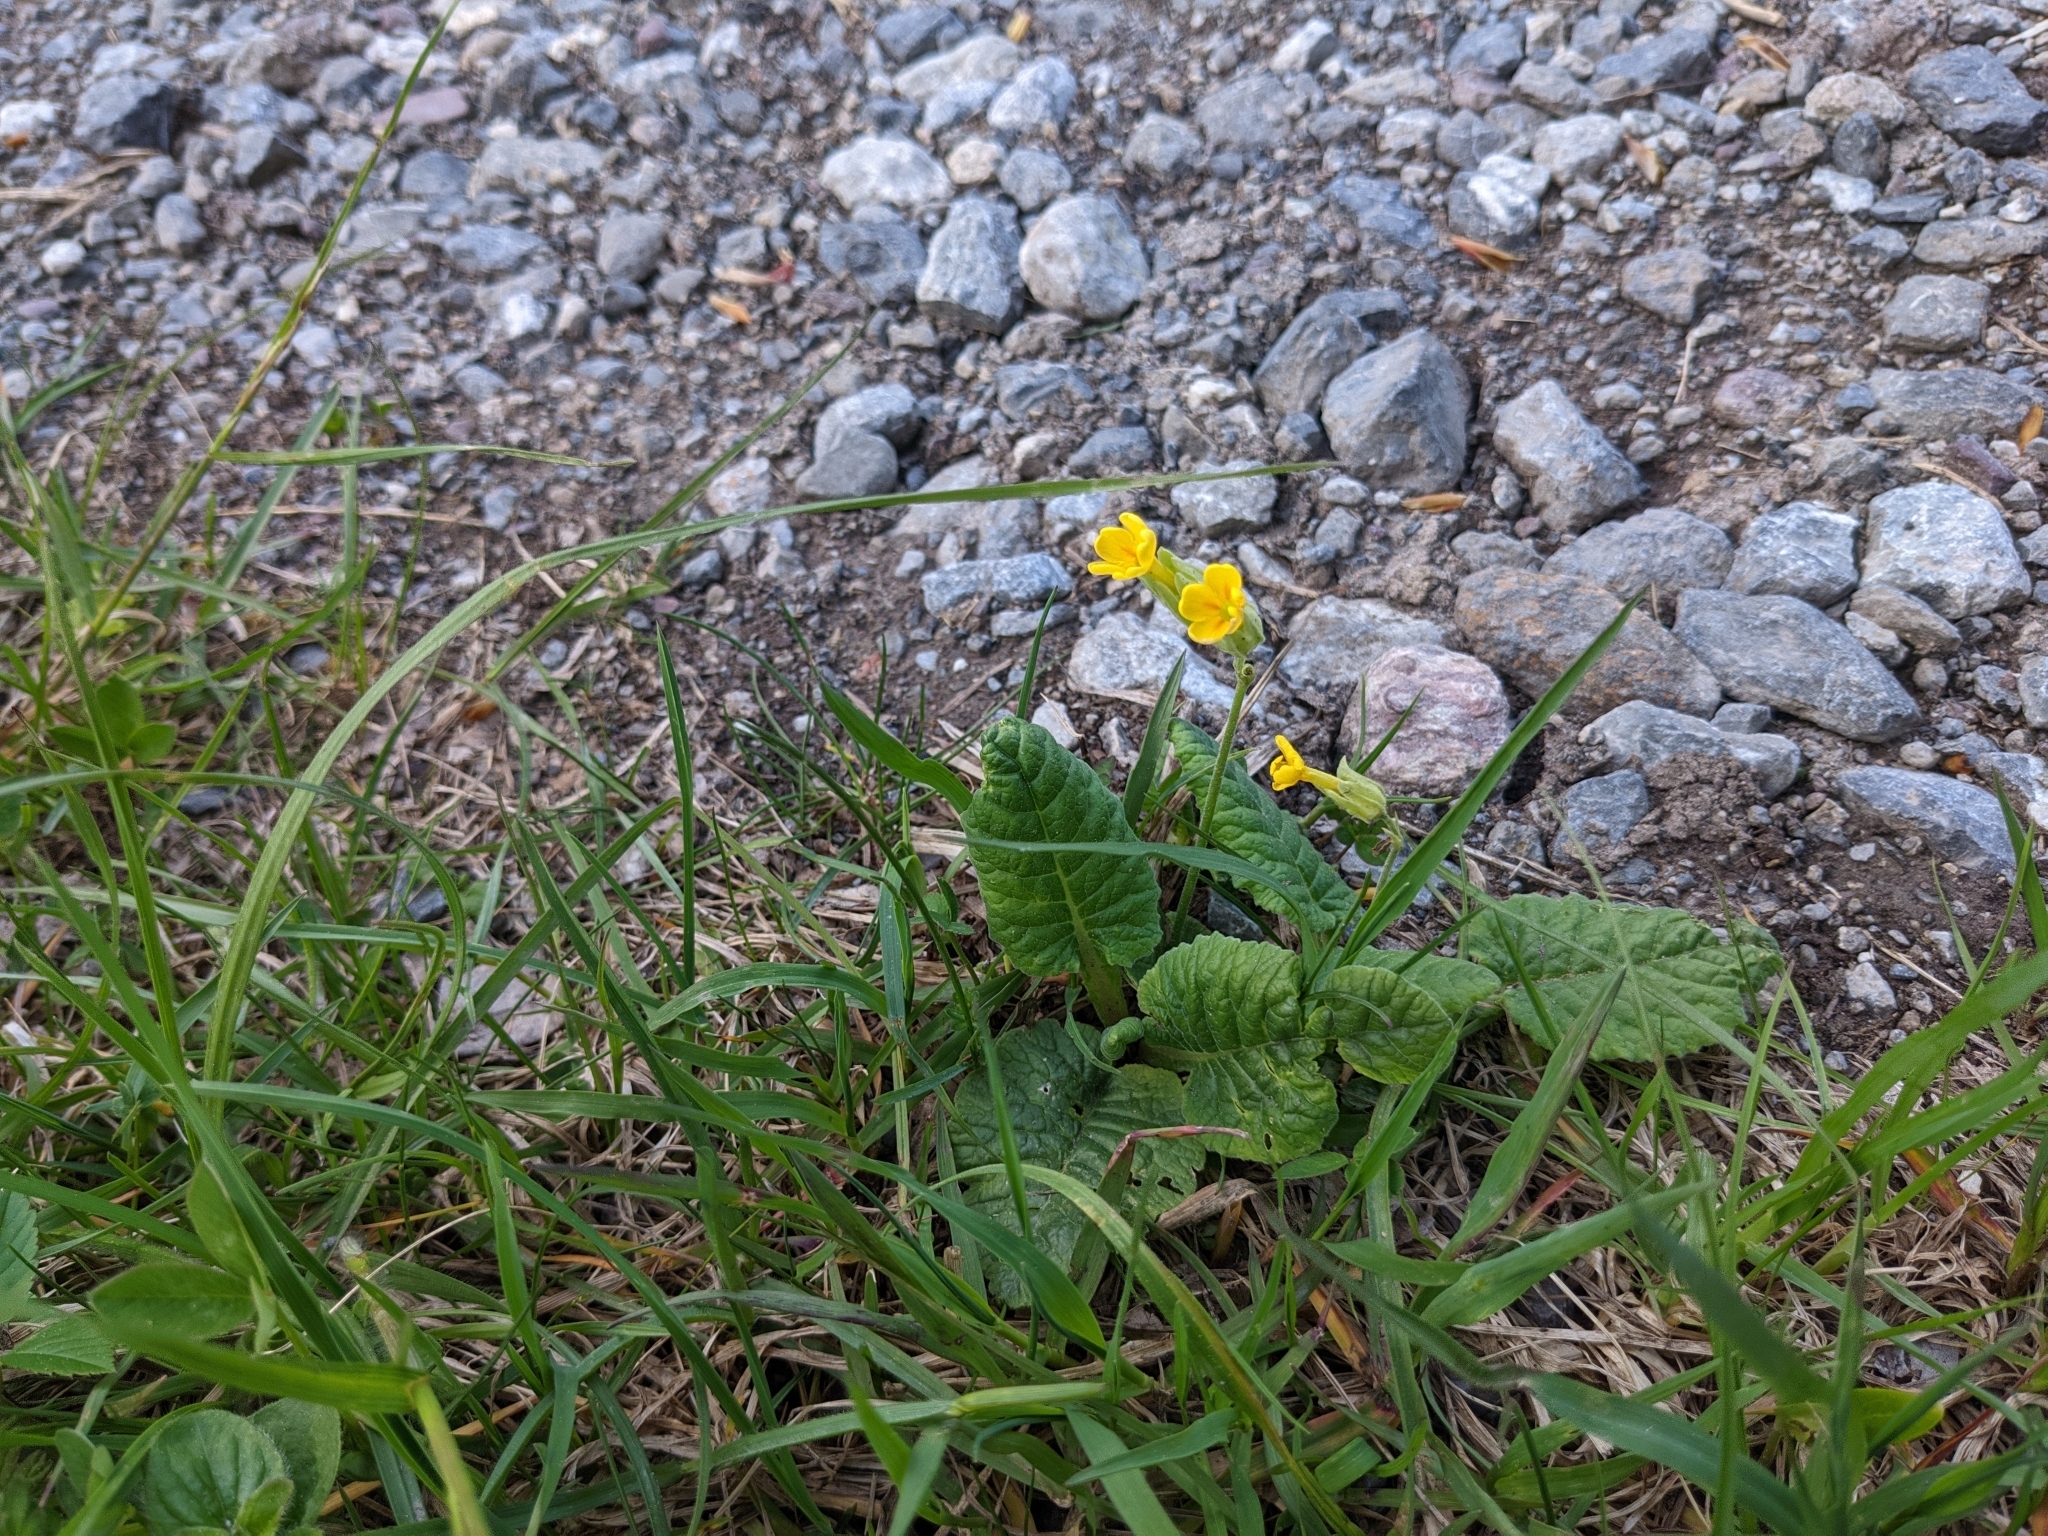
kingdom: Plantae
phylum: Tracheophyta
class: Magnoliopsida
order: Ericales
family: Primulaceae
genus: Primula
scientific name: Primula veris
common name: Cowslip
